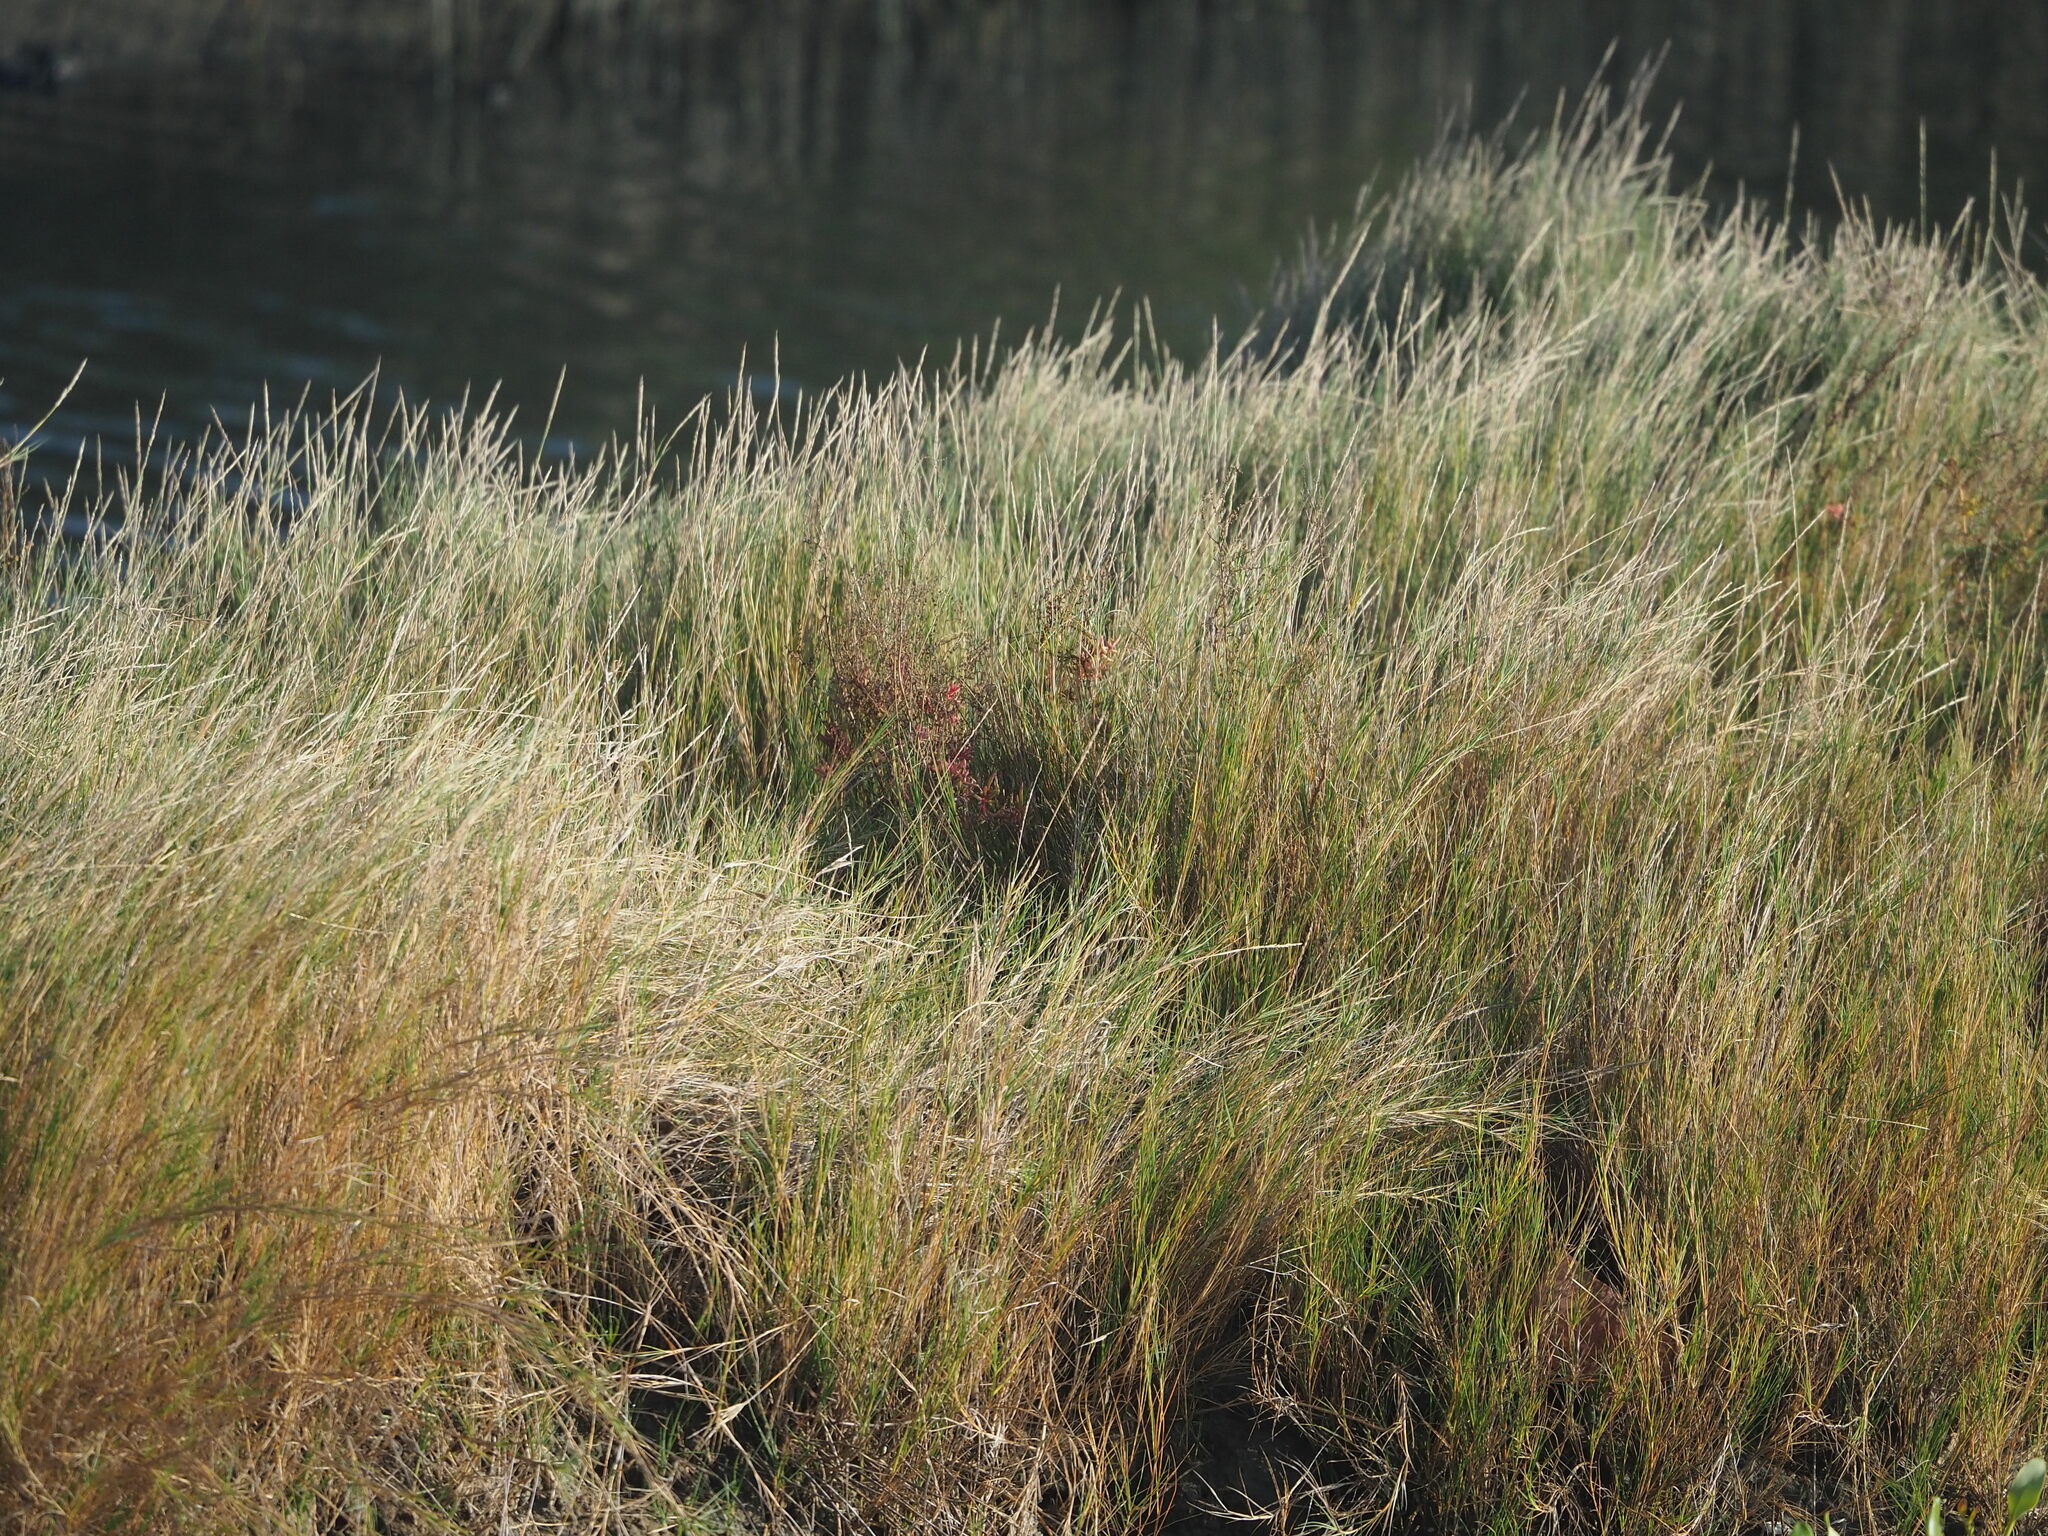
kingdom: Plantae
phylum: Tracheophyta
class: Liliopsida
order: Poales
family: Poaceae
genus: Sporobolus
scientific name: Sporobolus virginicus
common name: Beach dropseed
